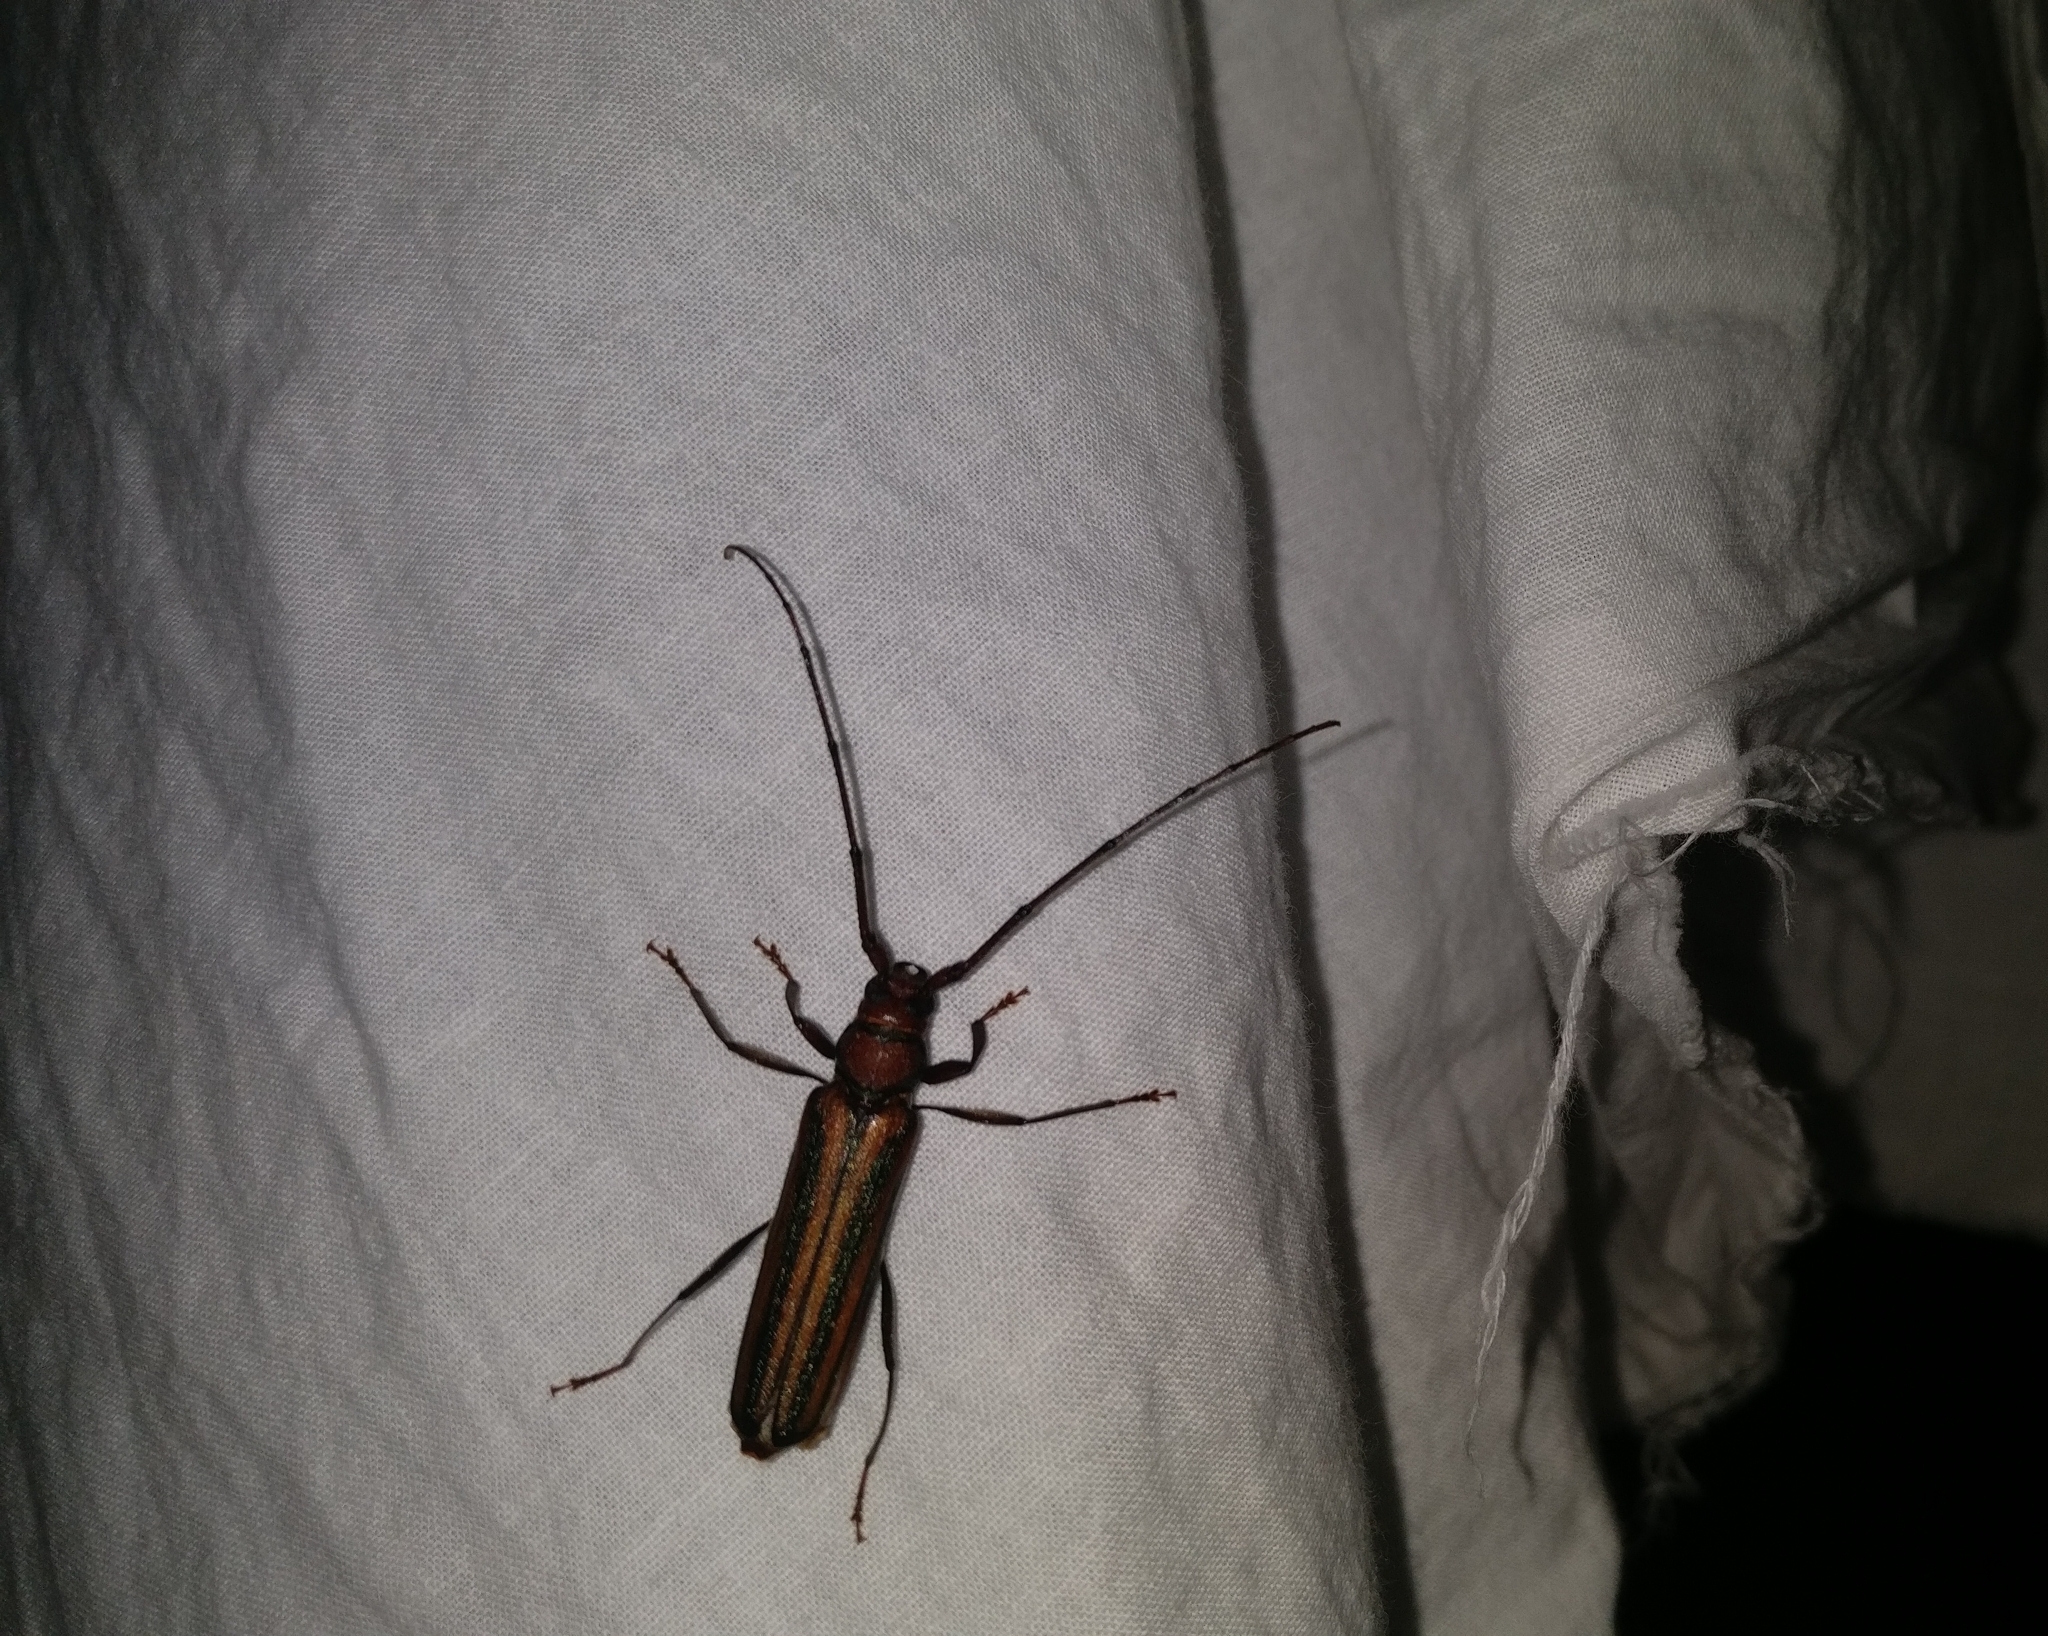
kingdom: Animalia
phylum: Arthropoda
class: Insecta
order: Coleoptera
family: Cerambycidae
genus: Xystrocera
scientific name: Xystrocera globosa
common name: Peach-tree longhorn
